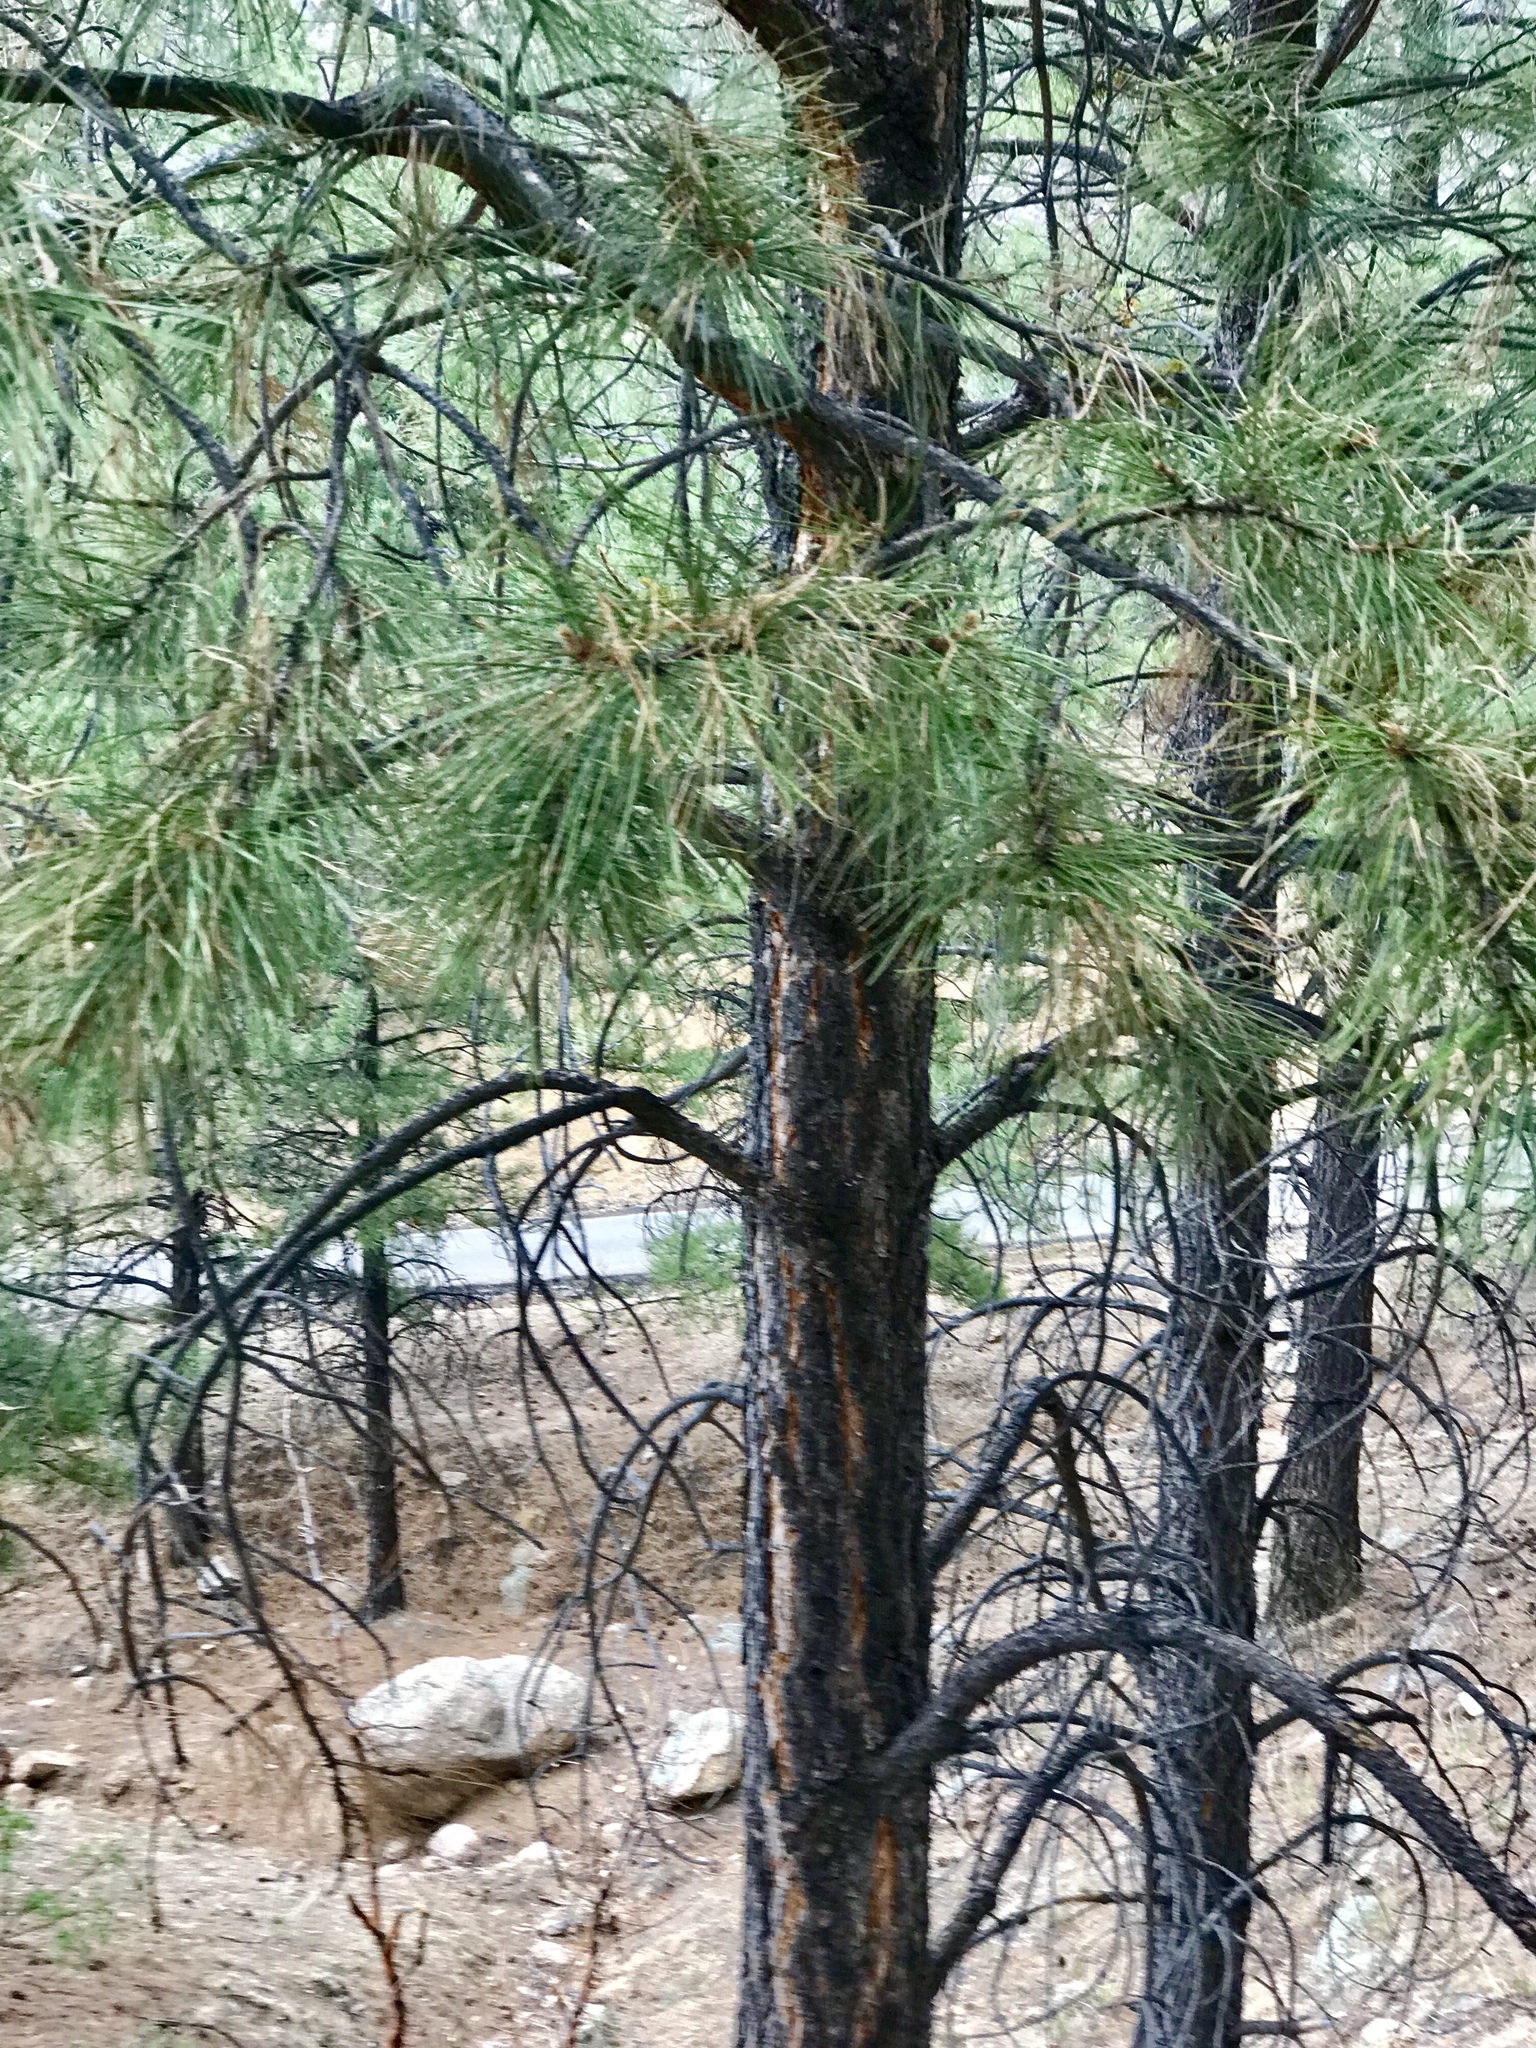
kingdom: Plantae
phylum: Tracheophyta
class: Pinopsida
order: Pinales
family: Pinaceae
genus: Pinus
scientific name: Pinus ponderosa
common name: Western yellow-pine
